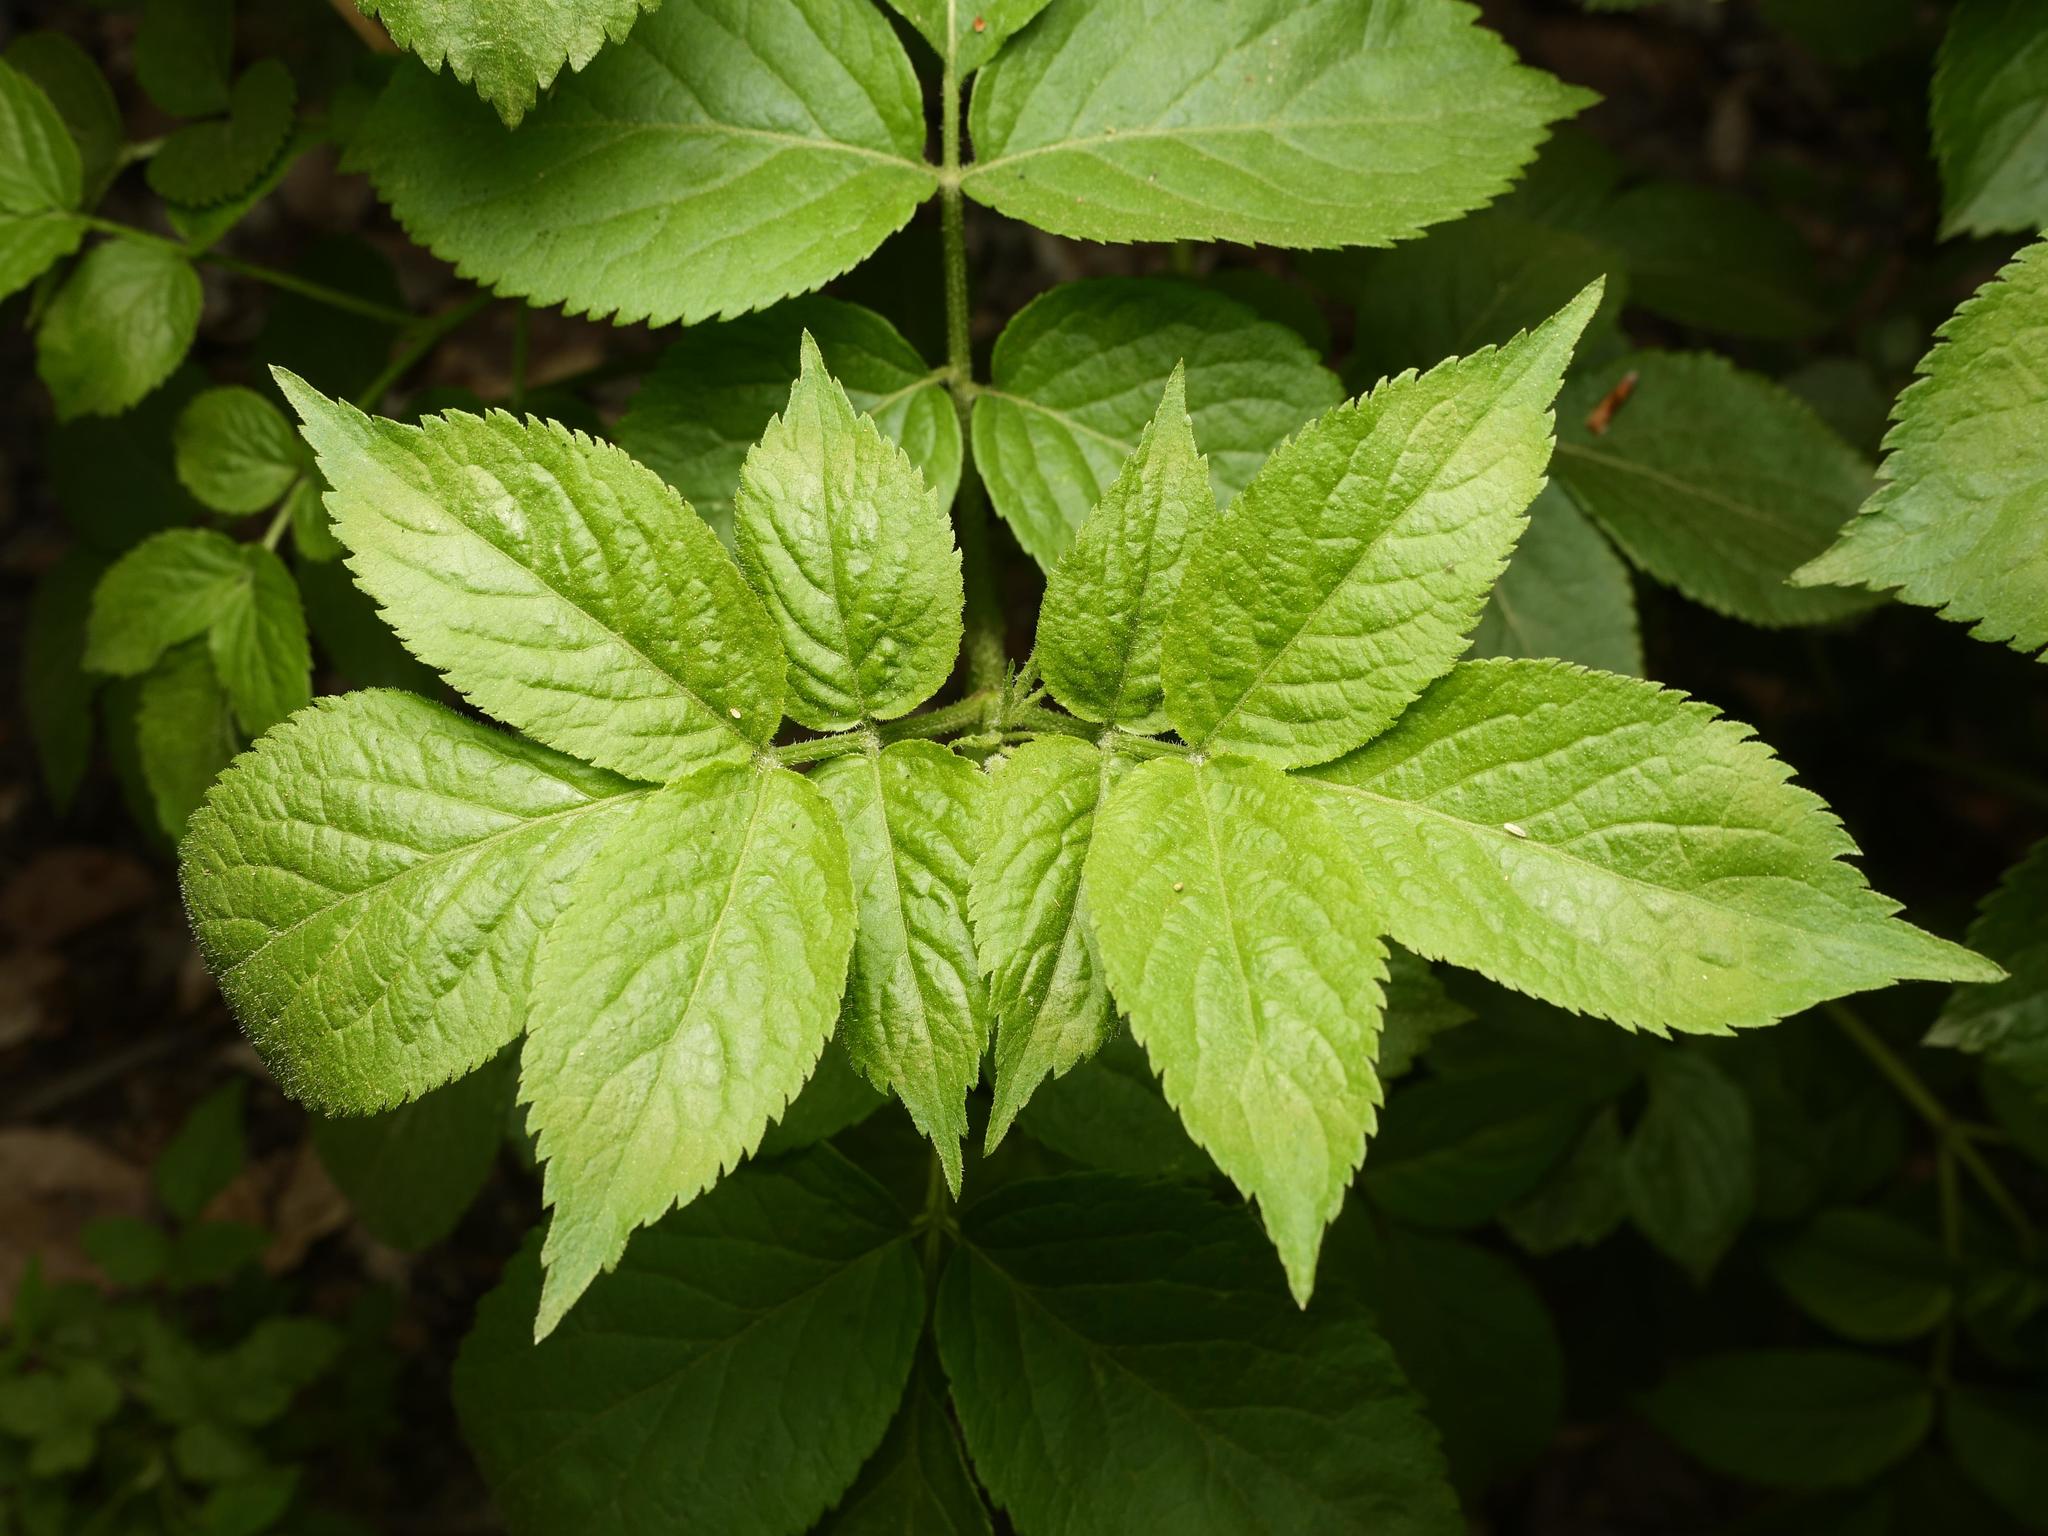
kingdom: Plantae
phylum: Tracheophyta
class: Magnoliopsida
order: Dipsacales
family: Viburnaceae
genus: Sambucus
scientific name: Sambucus nigra
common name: Elder
